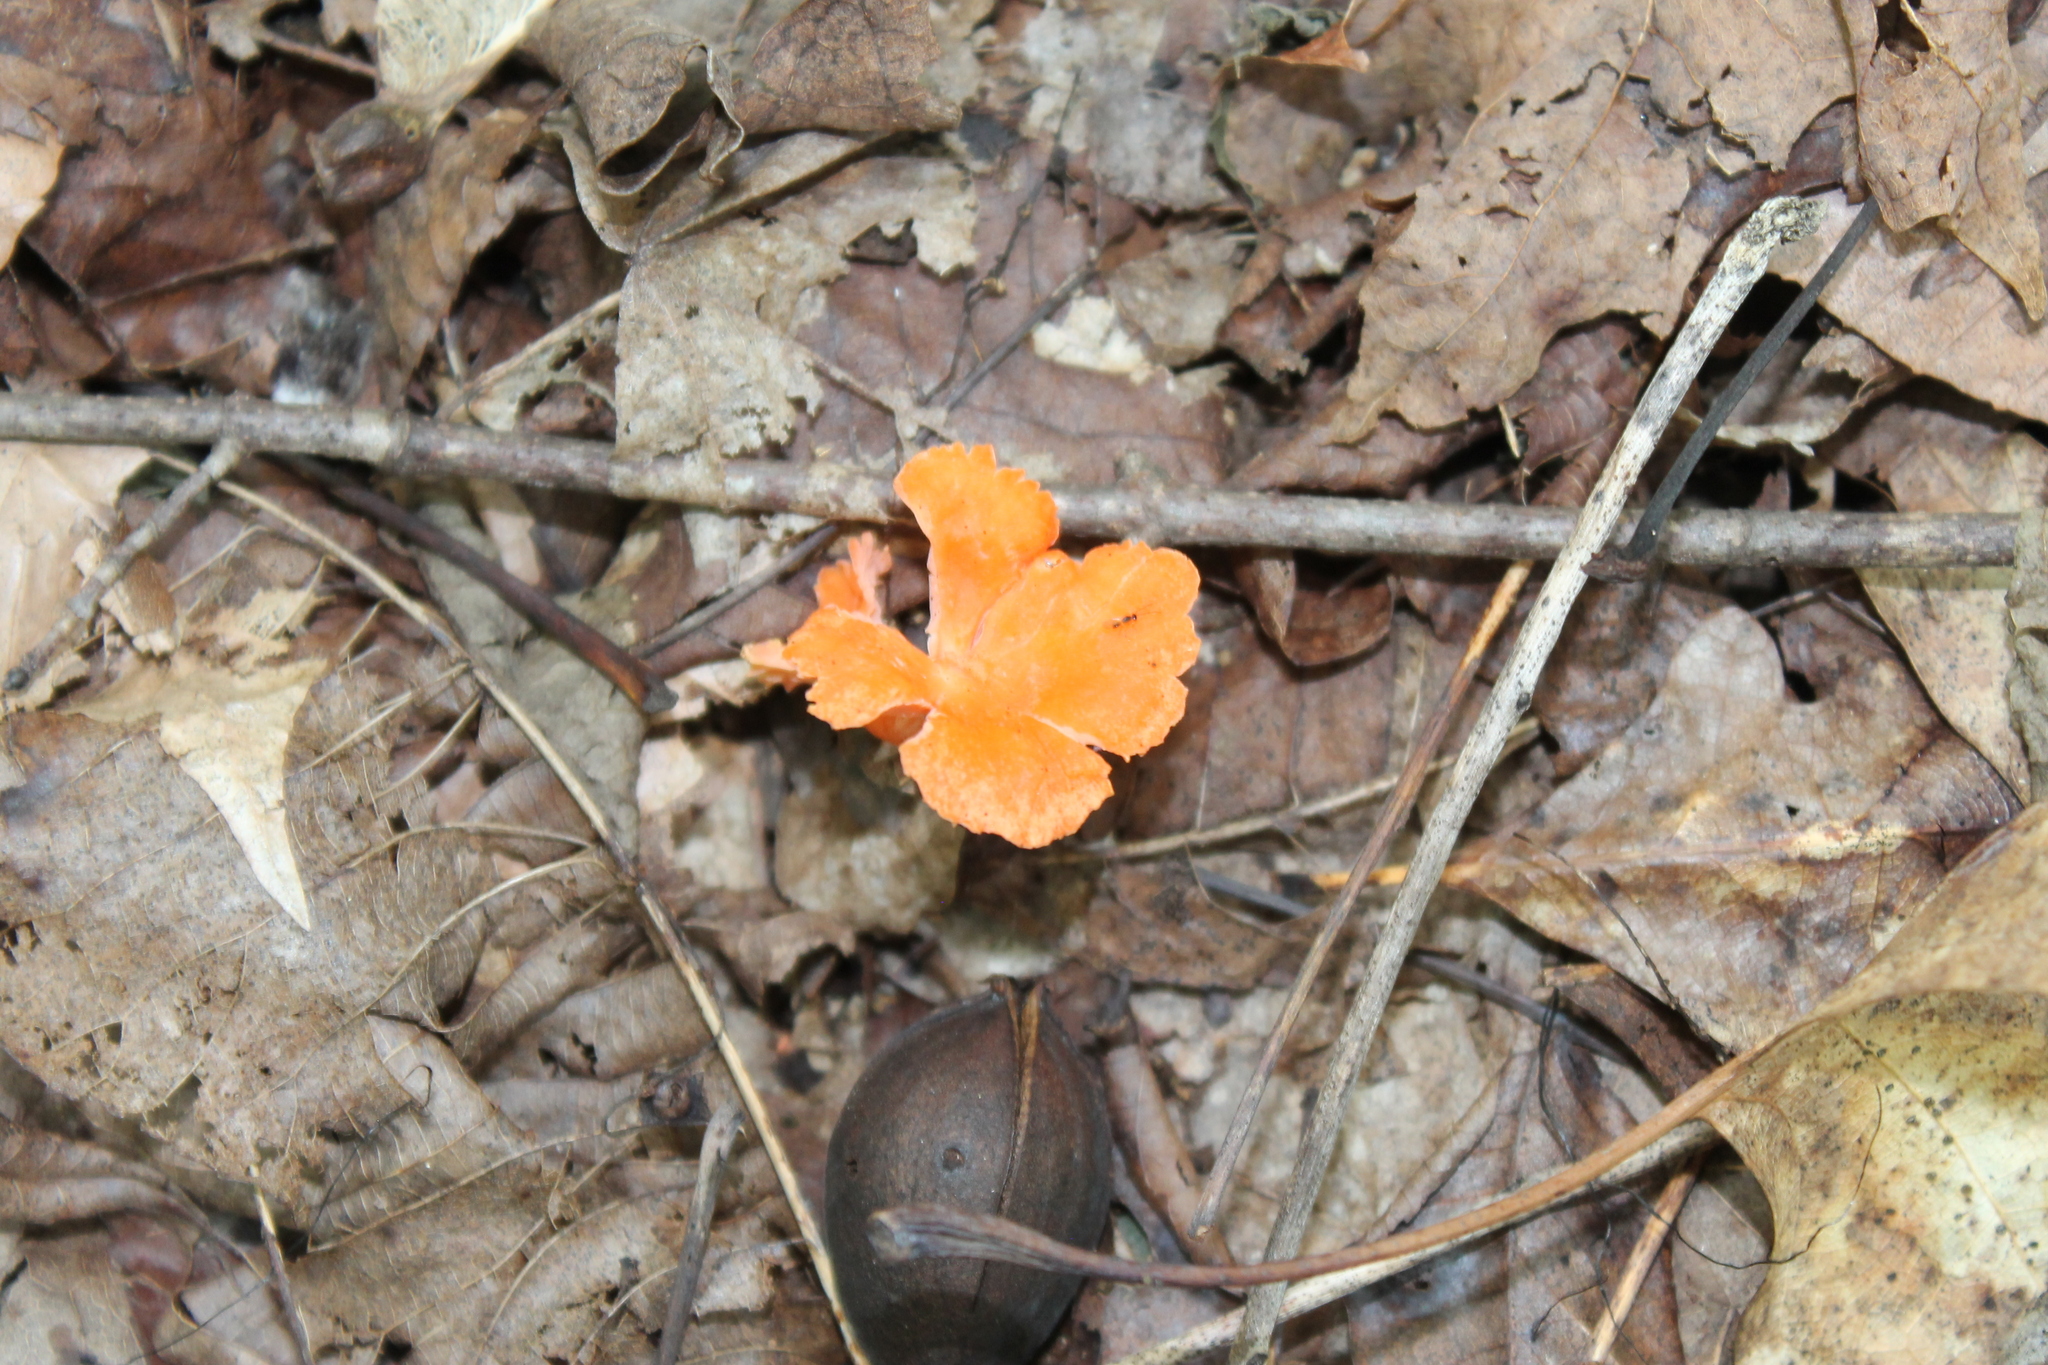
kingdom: Fungi
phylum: Basidiomycota
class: Agaricomycetes
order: Cantharellales
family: Hydnaceae
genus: Cantharellus
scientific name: Cantharellus cinnabarinus
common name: Cinnabar chanterelle
